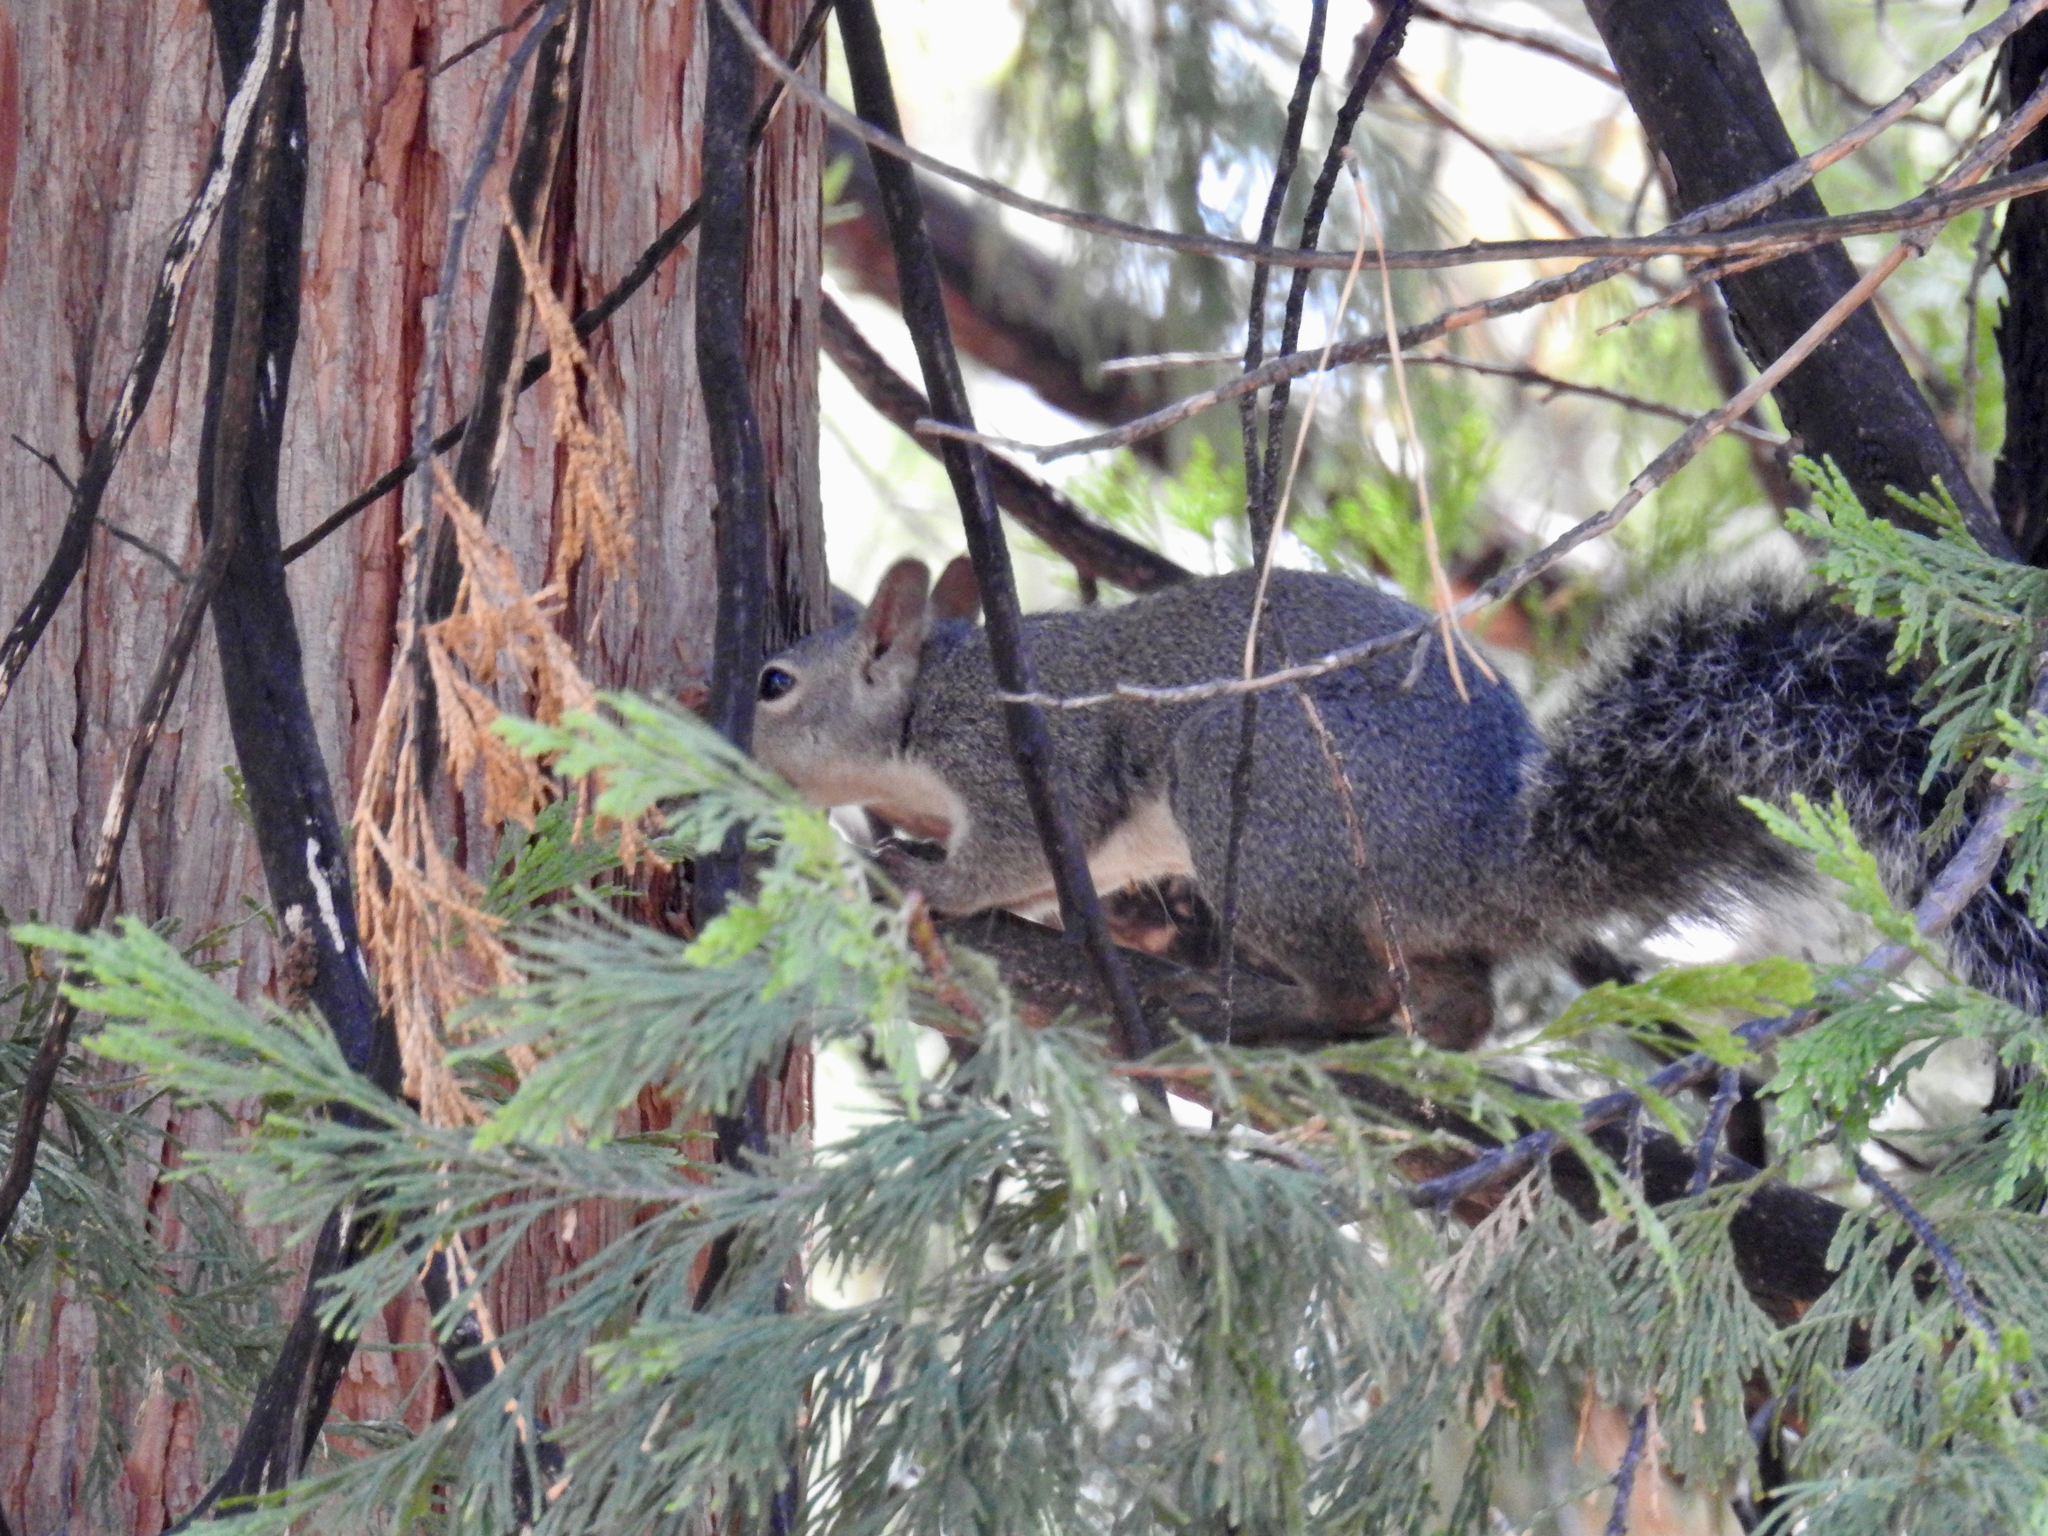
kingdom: Animalia
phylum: Chordata
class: Mammalia
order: Rodentia
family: Sciuridae
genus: Sciurus
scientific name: Sciurus griseus
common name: Western gray squirrel
